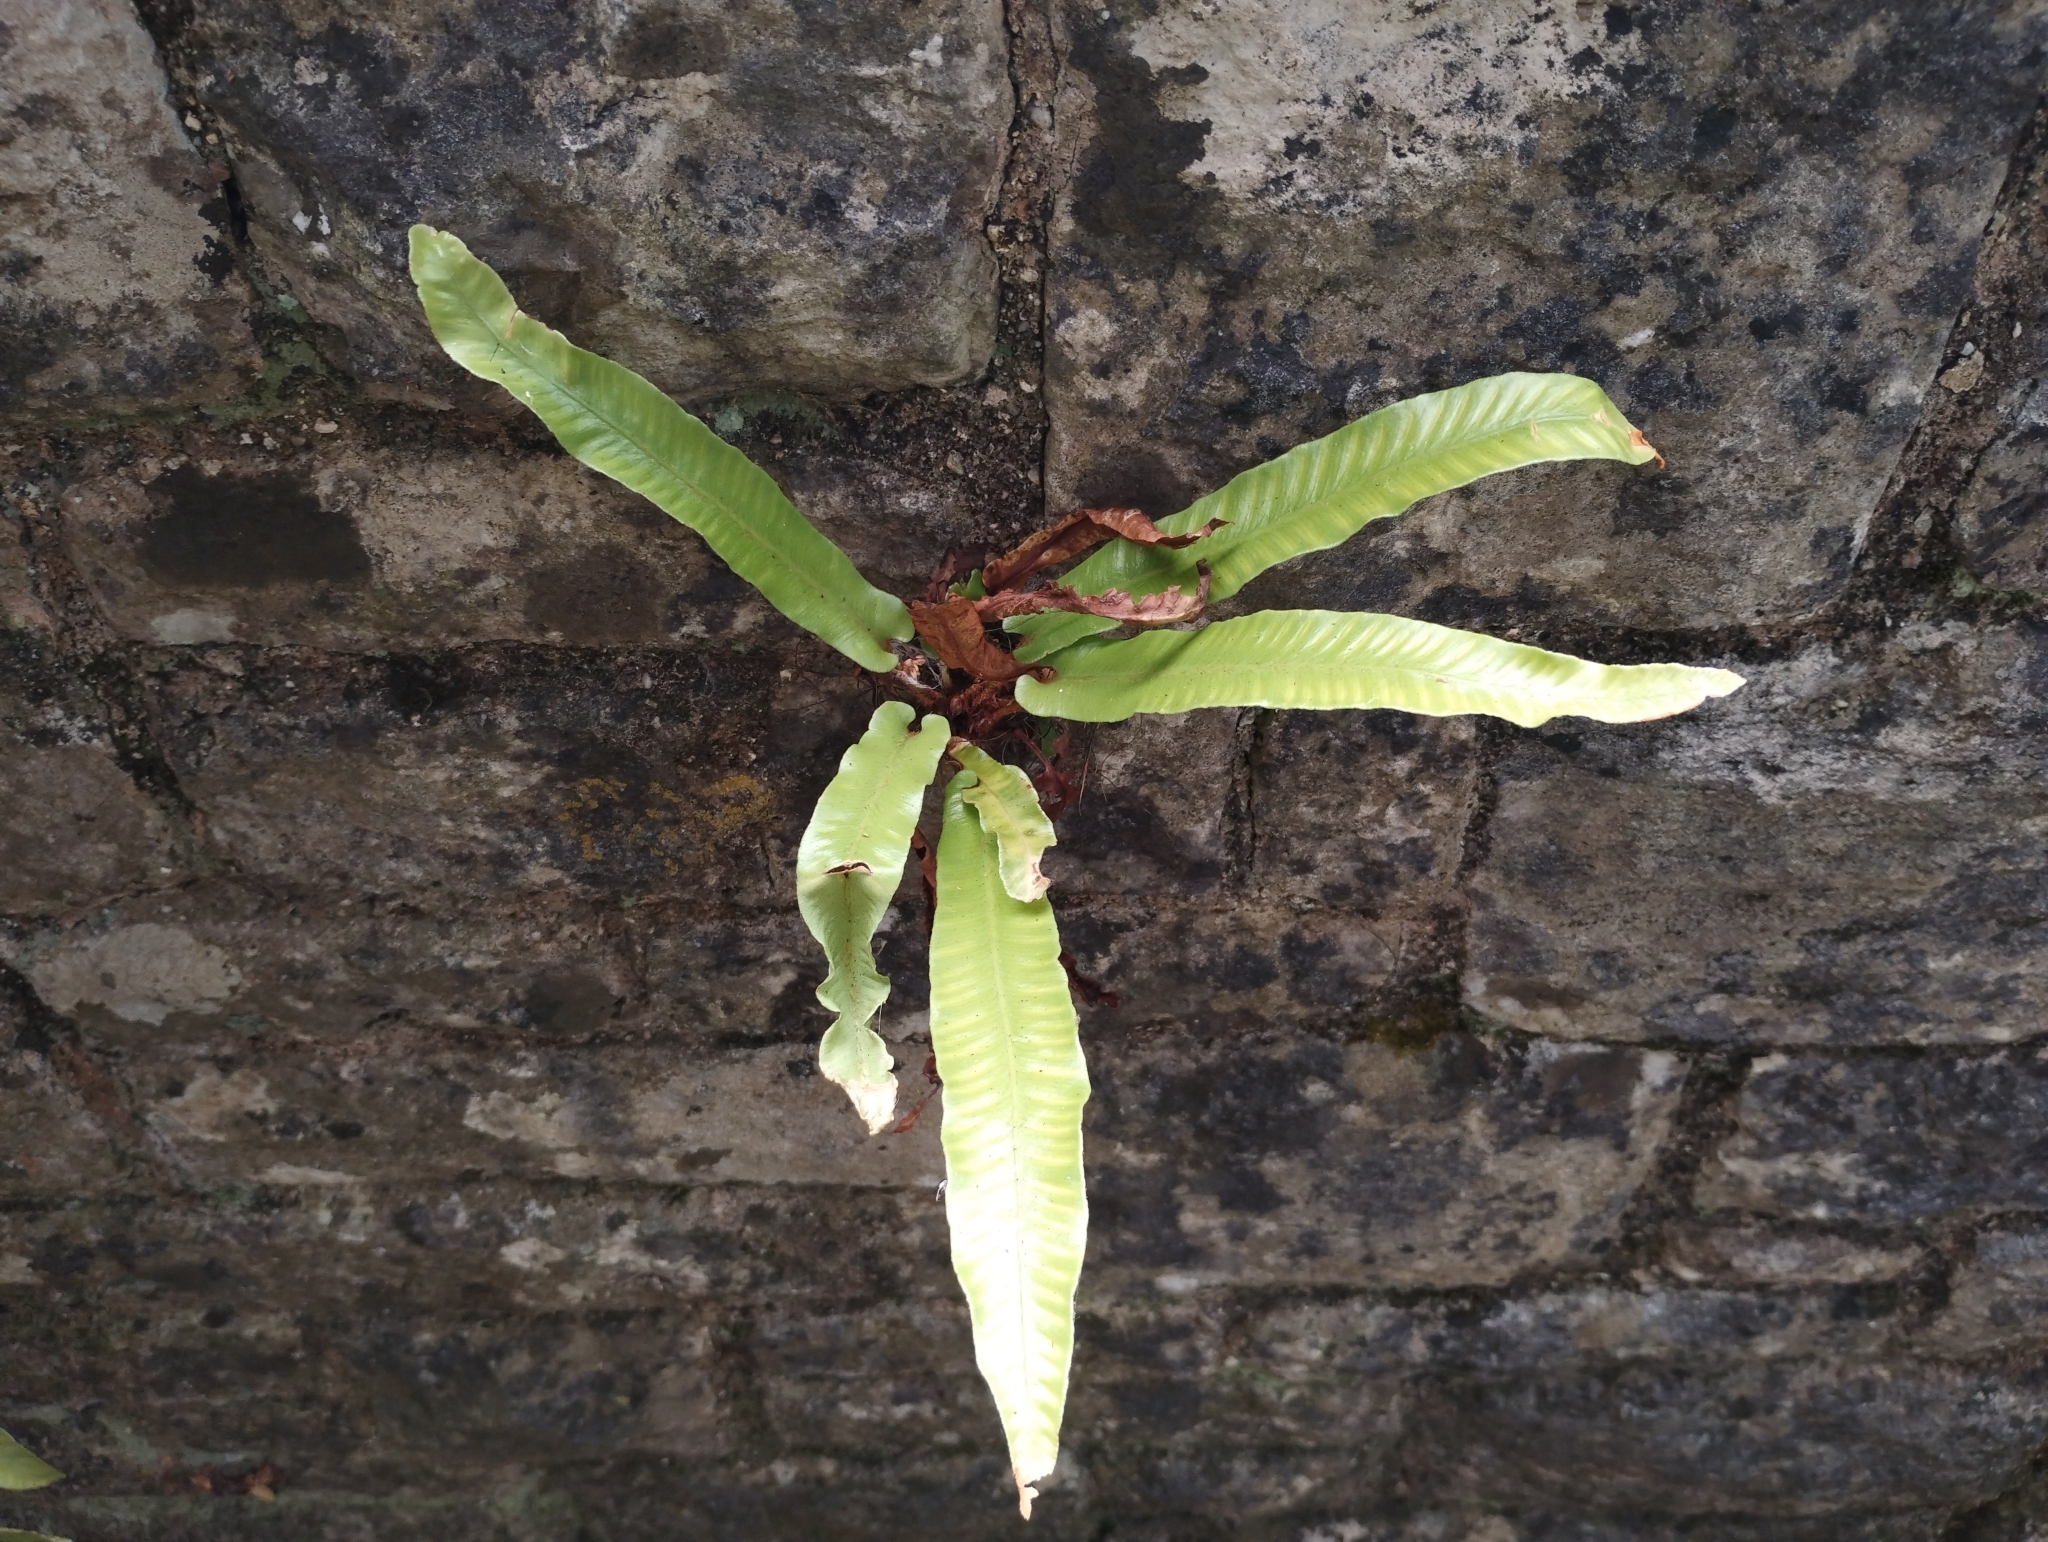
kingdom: Plantae
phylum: Tracheophyta
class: Polypodiopsida
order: Polypodiales
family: Aspleniaceae
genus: Asplenium
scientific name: Asplenium scolopendrium
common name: Hart's-tongue fern
